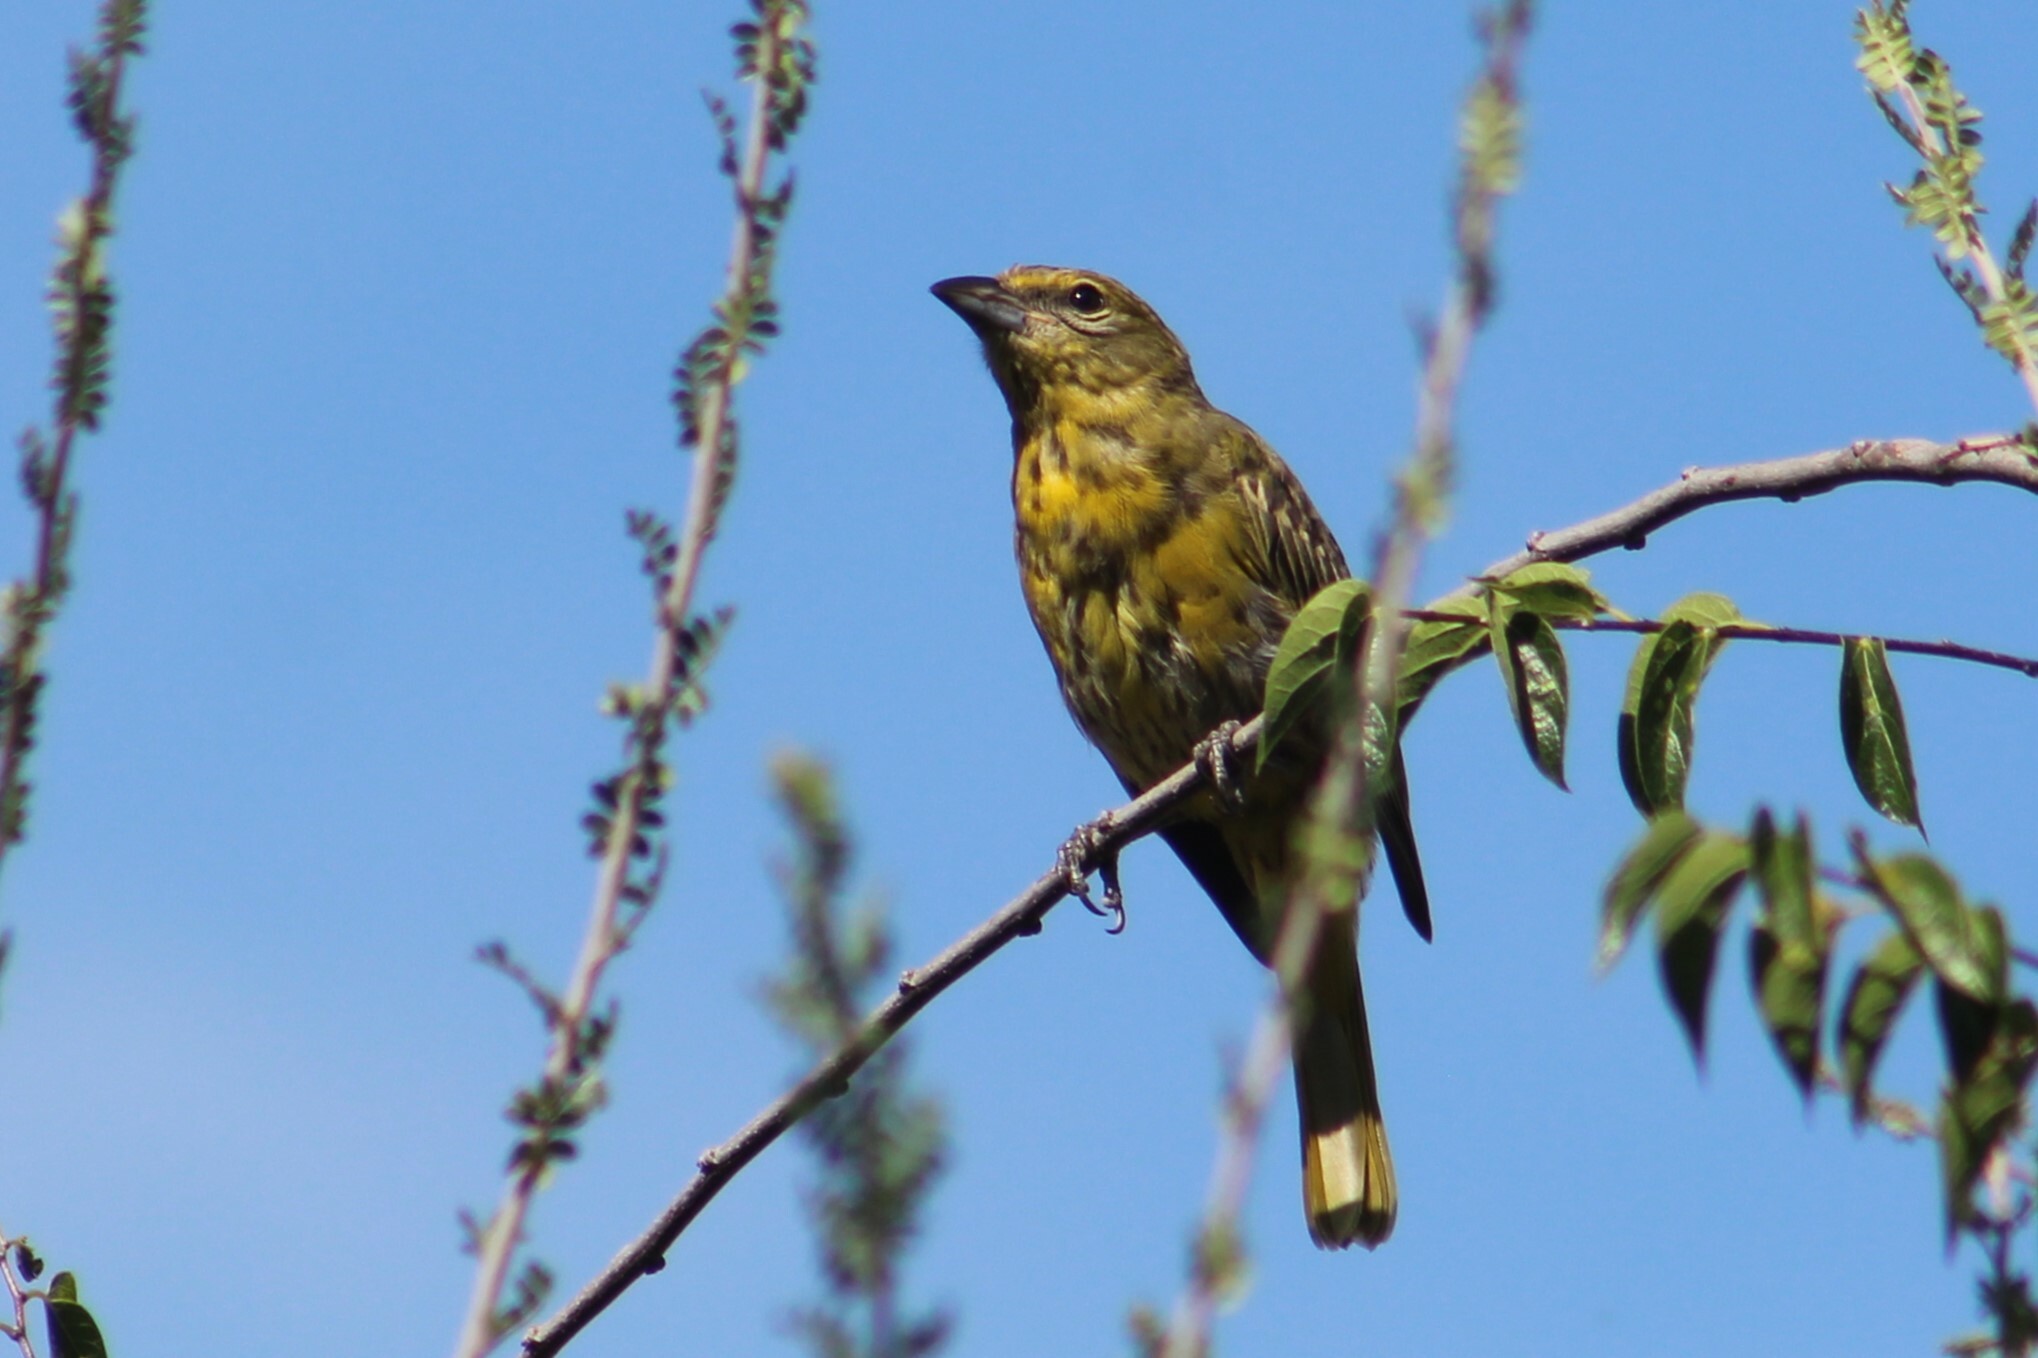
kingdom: Animalia
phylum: Chordata
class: Aves
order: Passeriformes
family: Cardinalidae
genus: Piranga
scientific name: Piranga flava
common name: Red tanager
